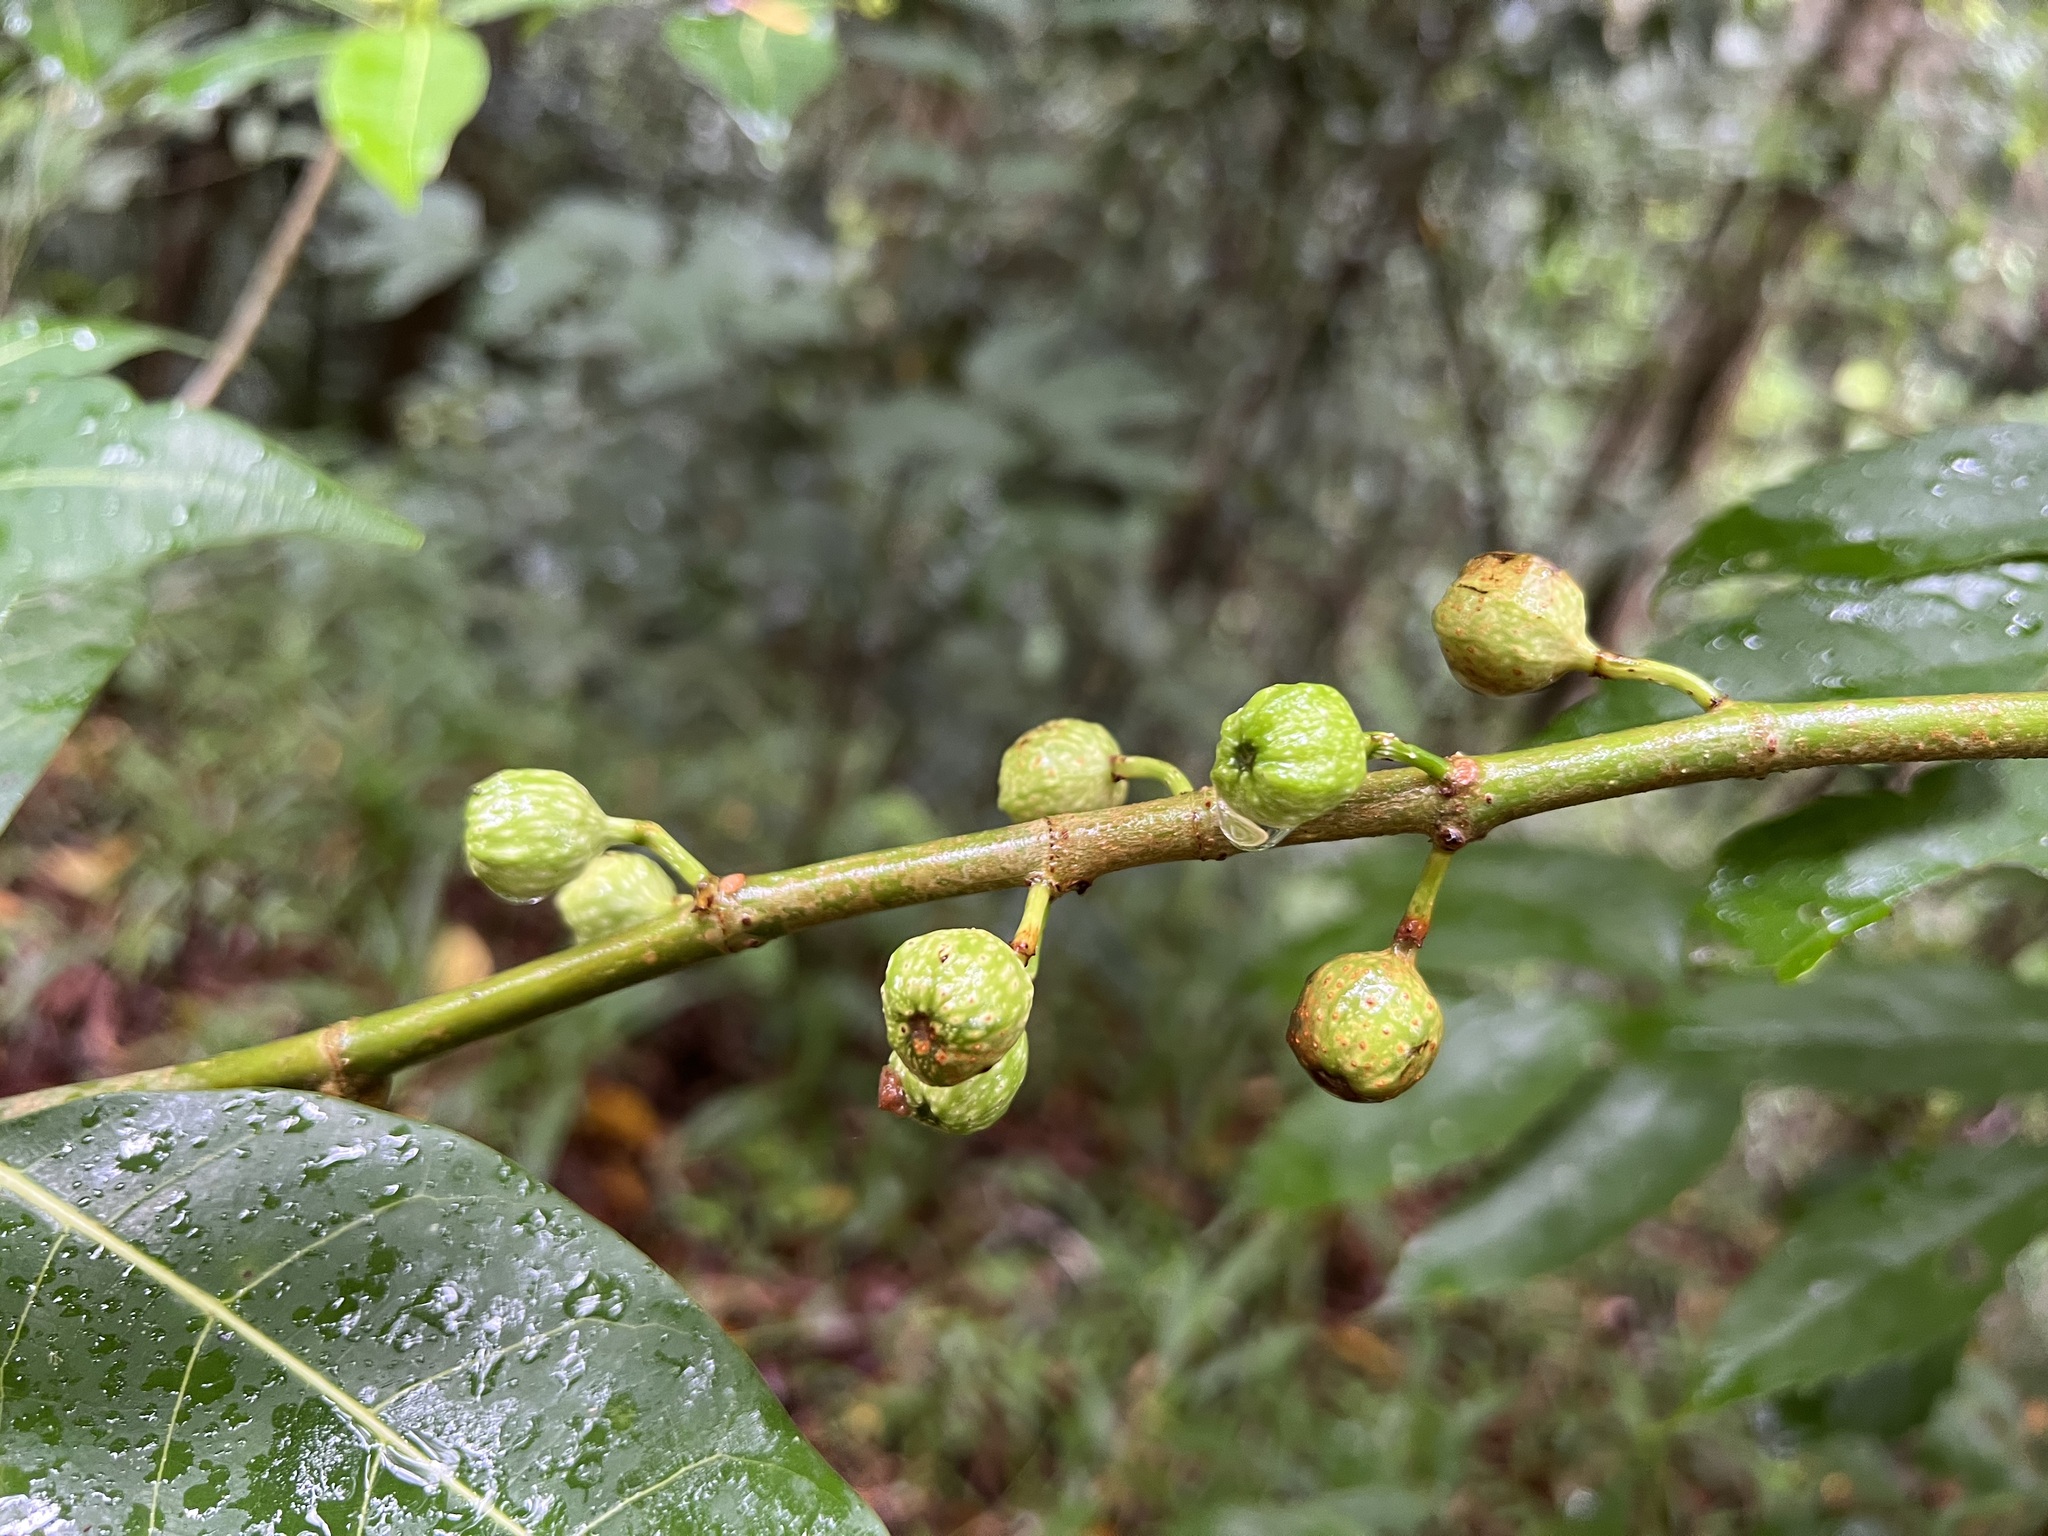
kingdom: Plantae
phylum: Tracheophyta
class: Magnoliopsida
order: Rosales
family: Moraceae
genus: Ficus
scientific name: Ficus septica
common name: Septic fig
